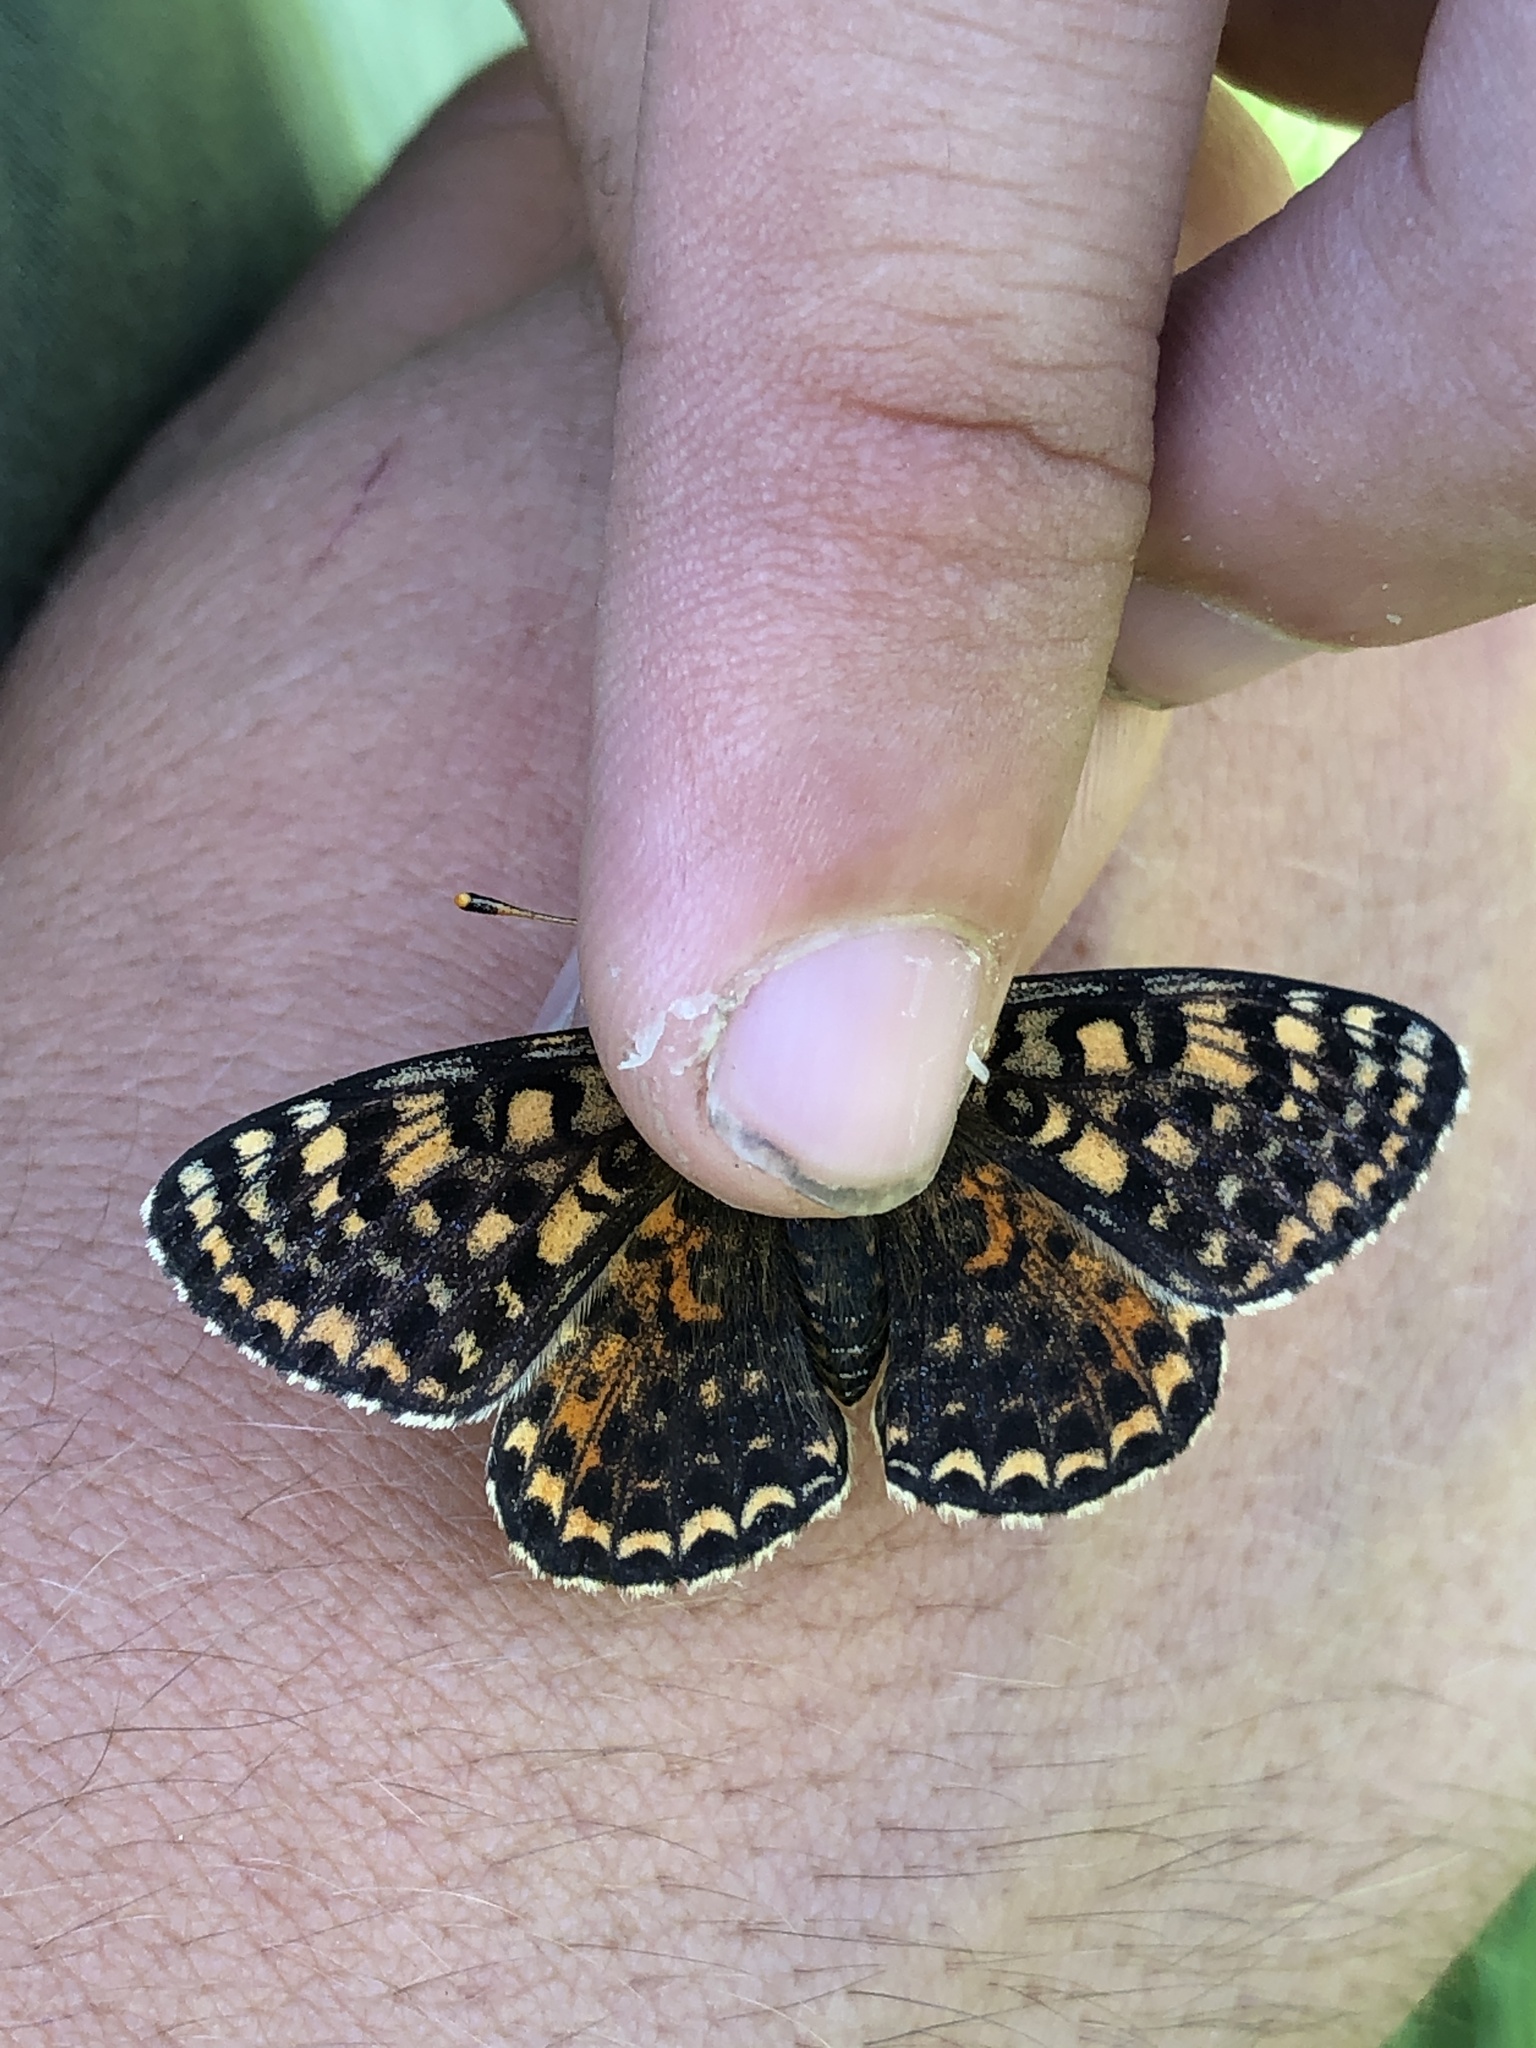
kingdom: Animalia
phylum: Arthropoda
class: Insecta
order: Lepidoptera
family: Nymphalidae
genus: Melitaea
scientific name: Melitaea didyma
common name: Spotted fritillary
